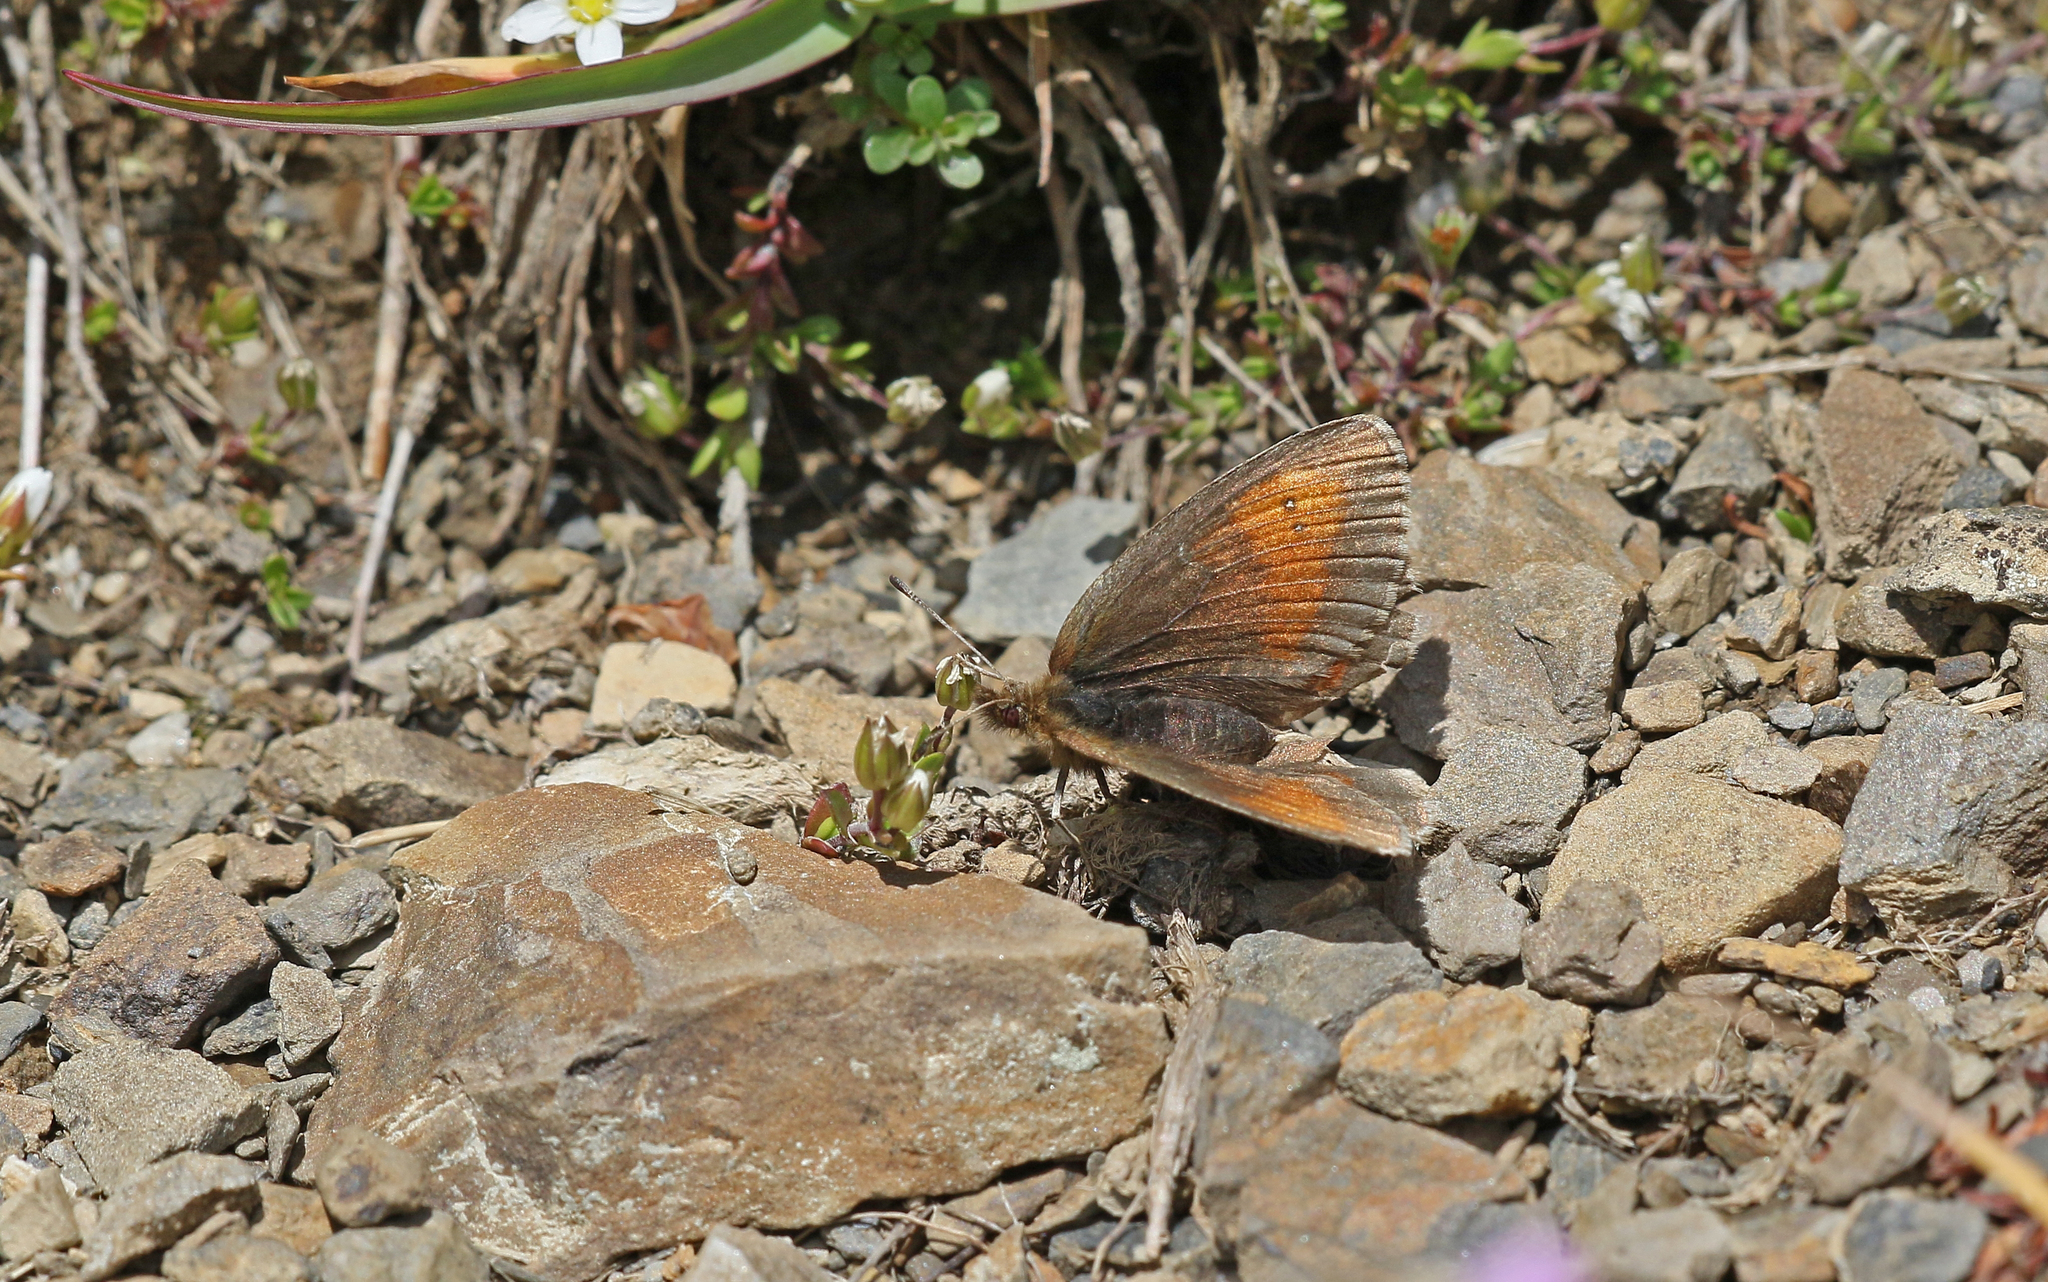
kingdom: Animalia
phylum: Arthropoda
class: Insecta
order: Lepidoptera
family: Nymphalidae
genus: Erebia
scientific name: Erebia mnestra
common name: Mnestra’s ringlet
